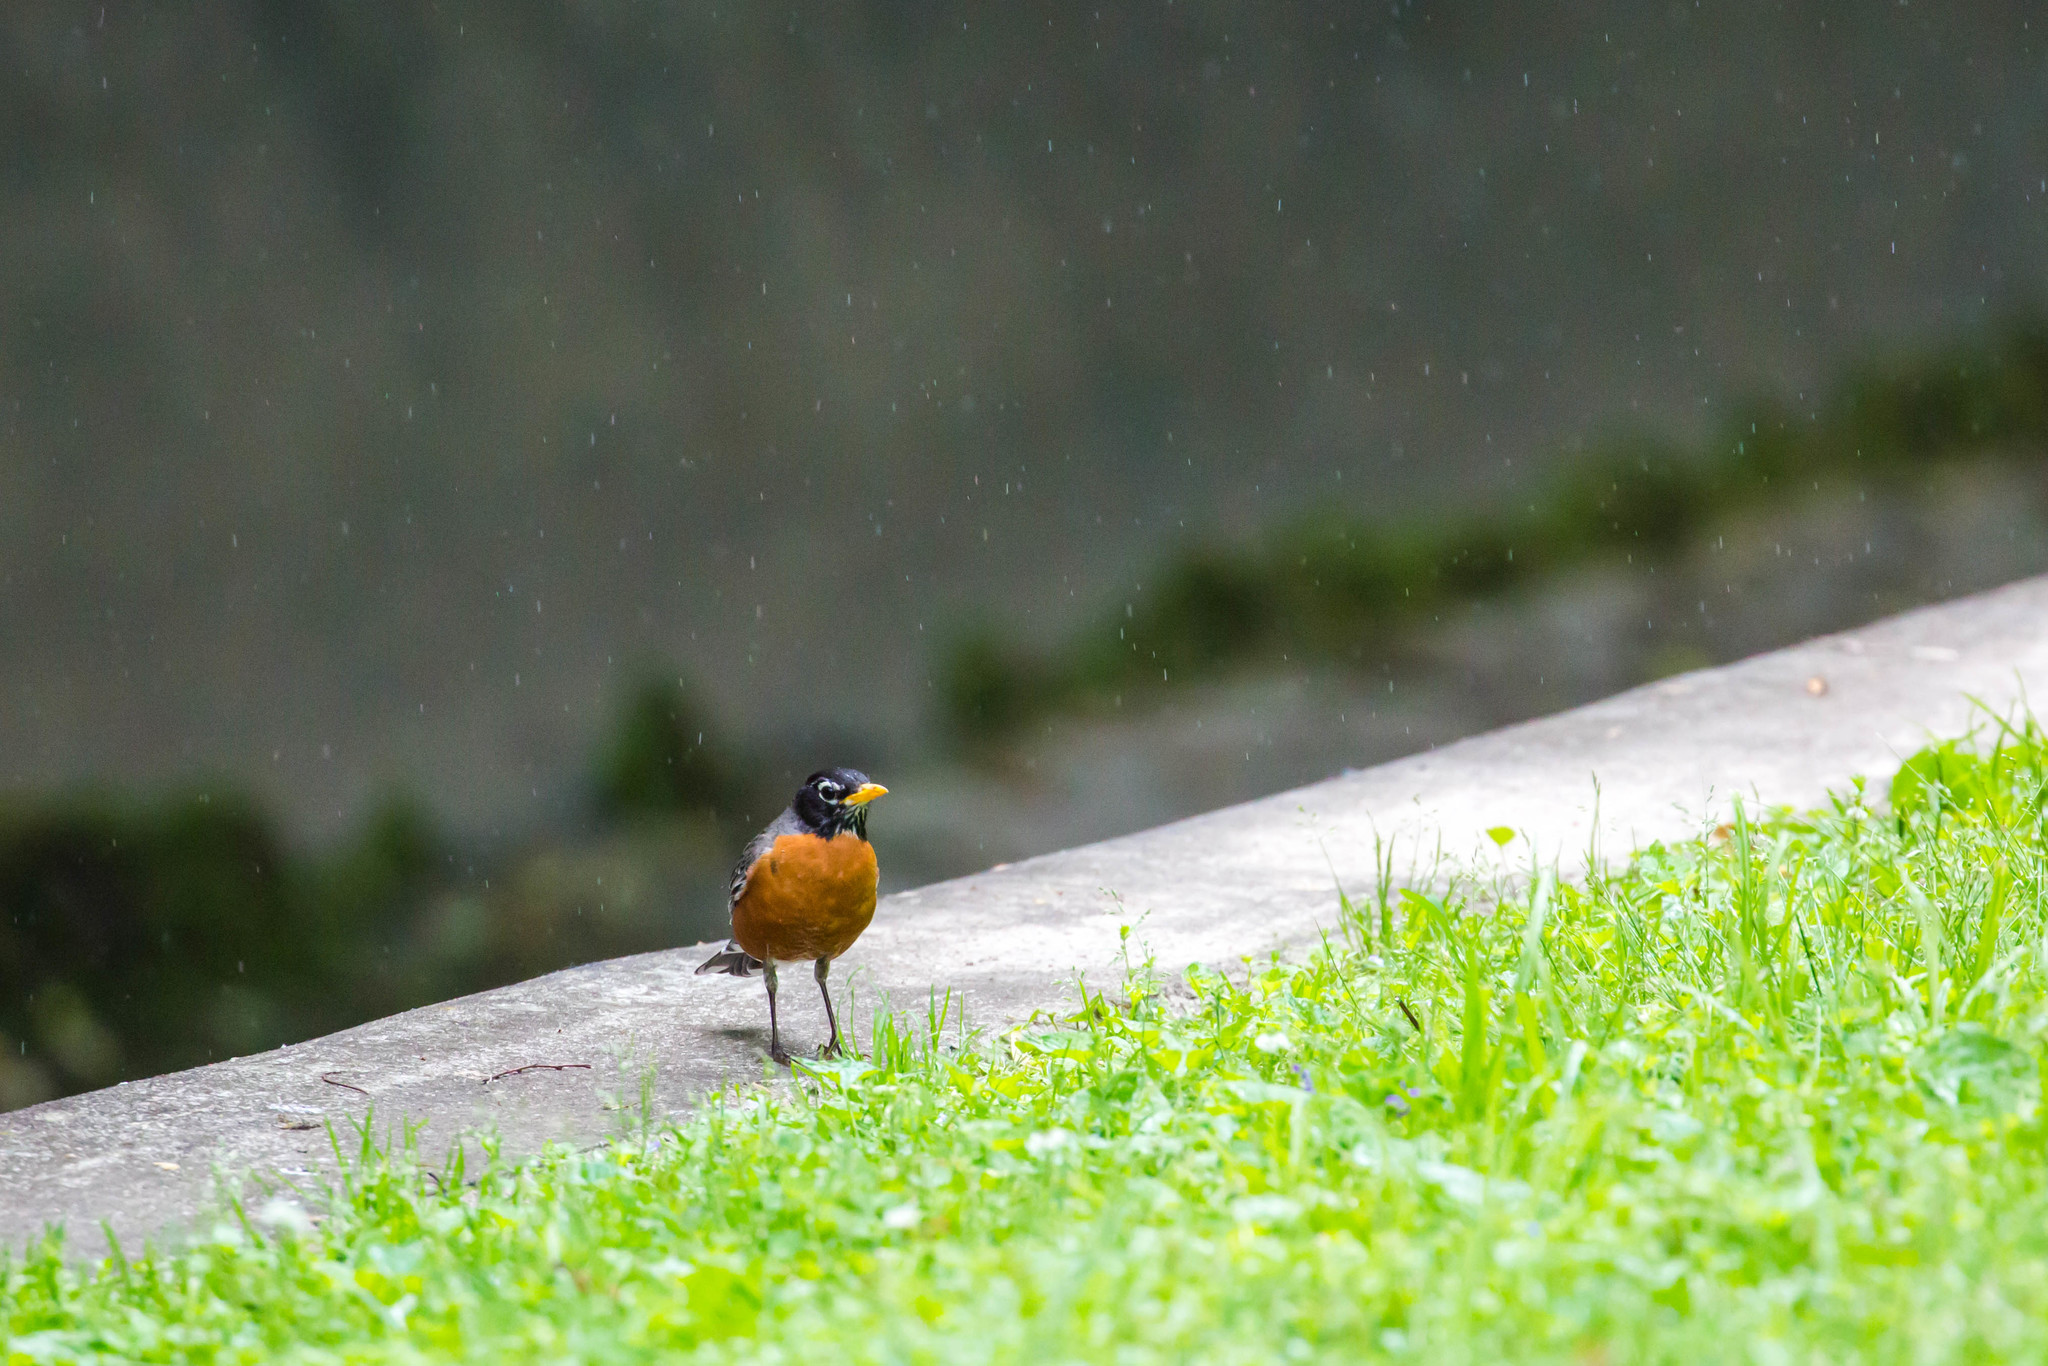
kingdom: Animalia
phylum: Chordata
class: Aves
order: Passeriformes
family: Turdidae
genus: Turdus
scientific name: Turdus migratorius
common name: American robin
